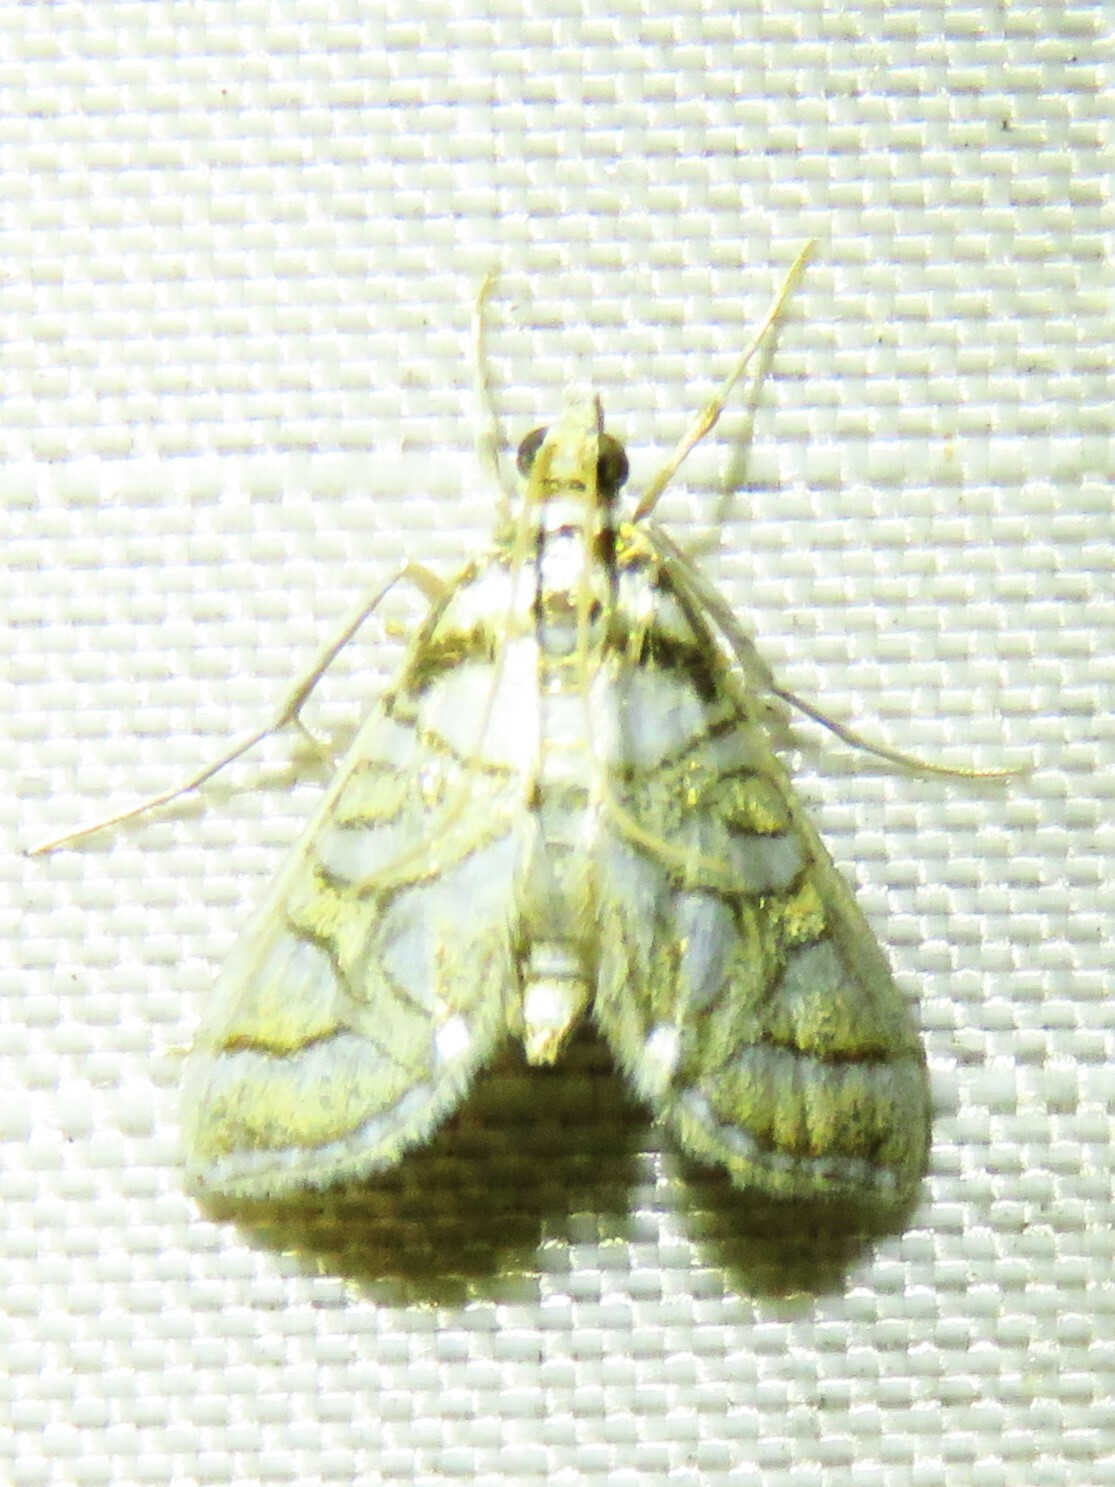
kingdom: Animalia
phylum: Arthropoda
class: Insecta
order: Lepidoptera
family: Crambidae
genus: Pseudopyrausta
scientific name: Pseudopyrausta santatalis
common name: Moth
